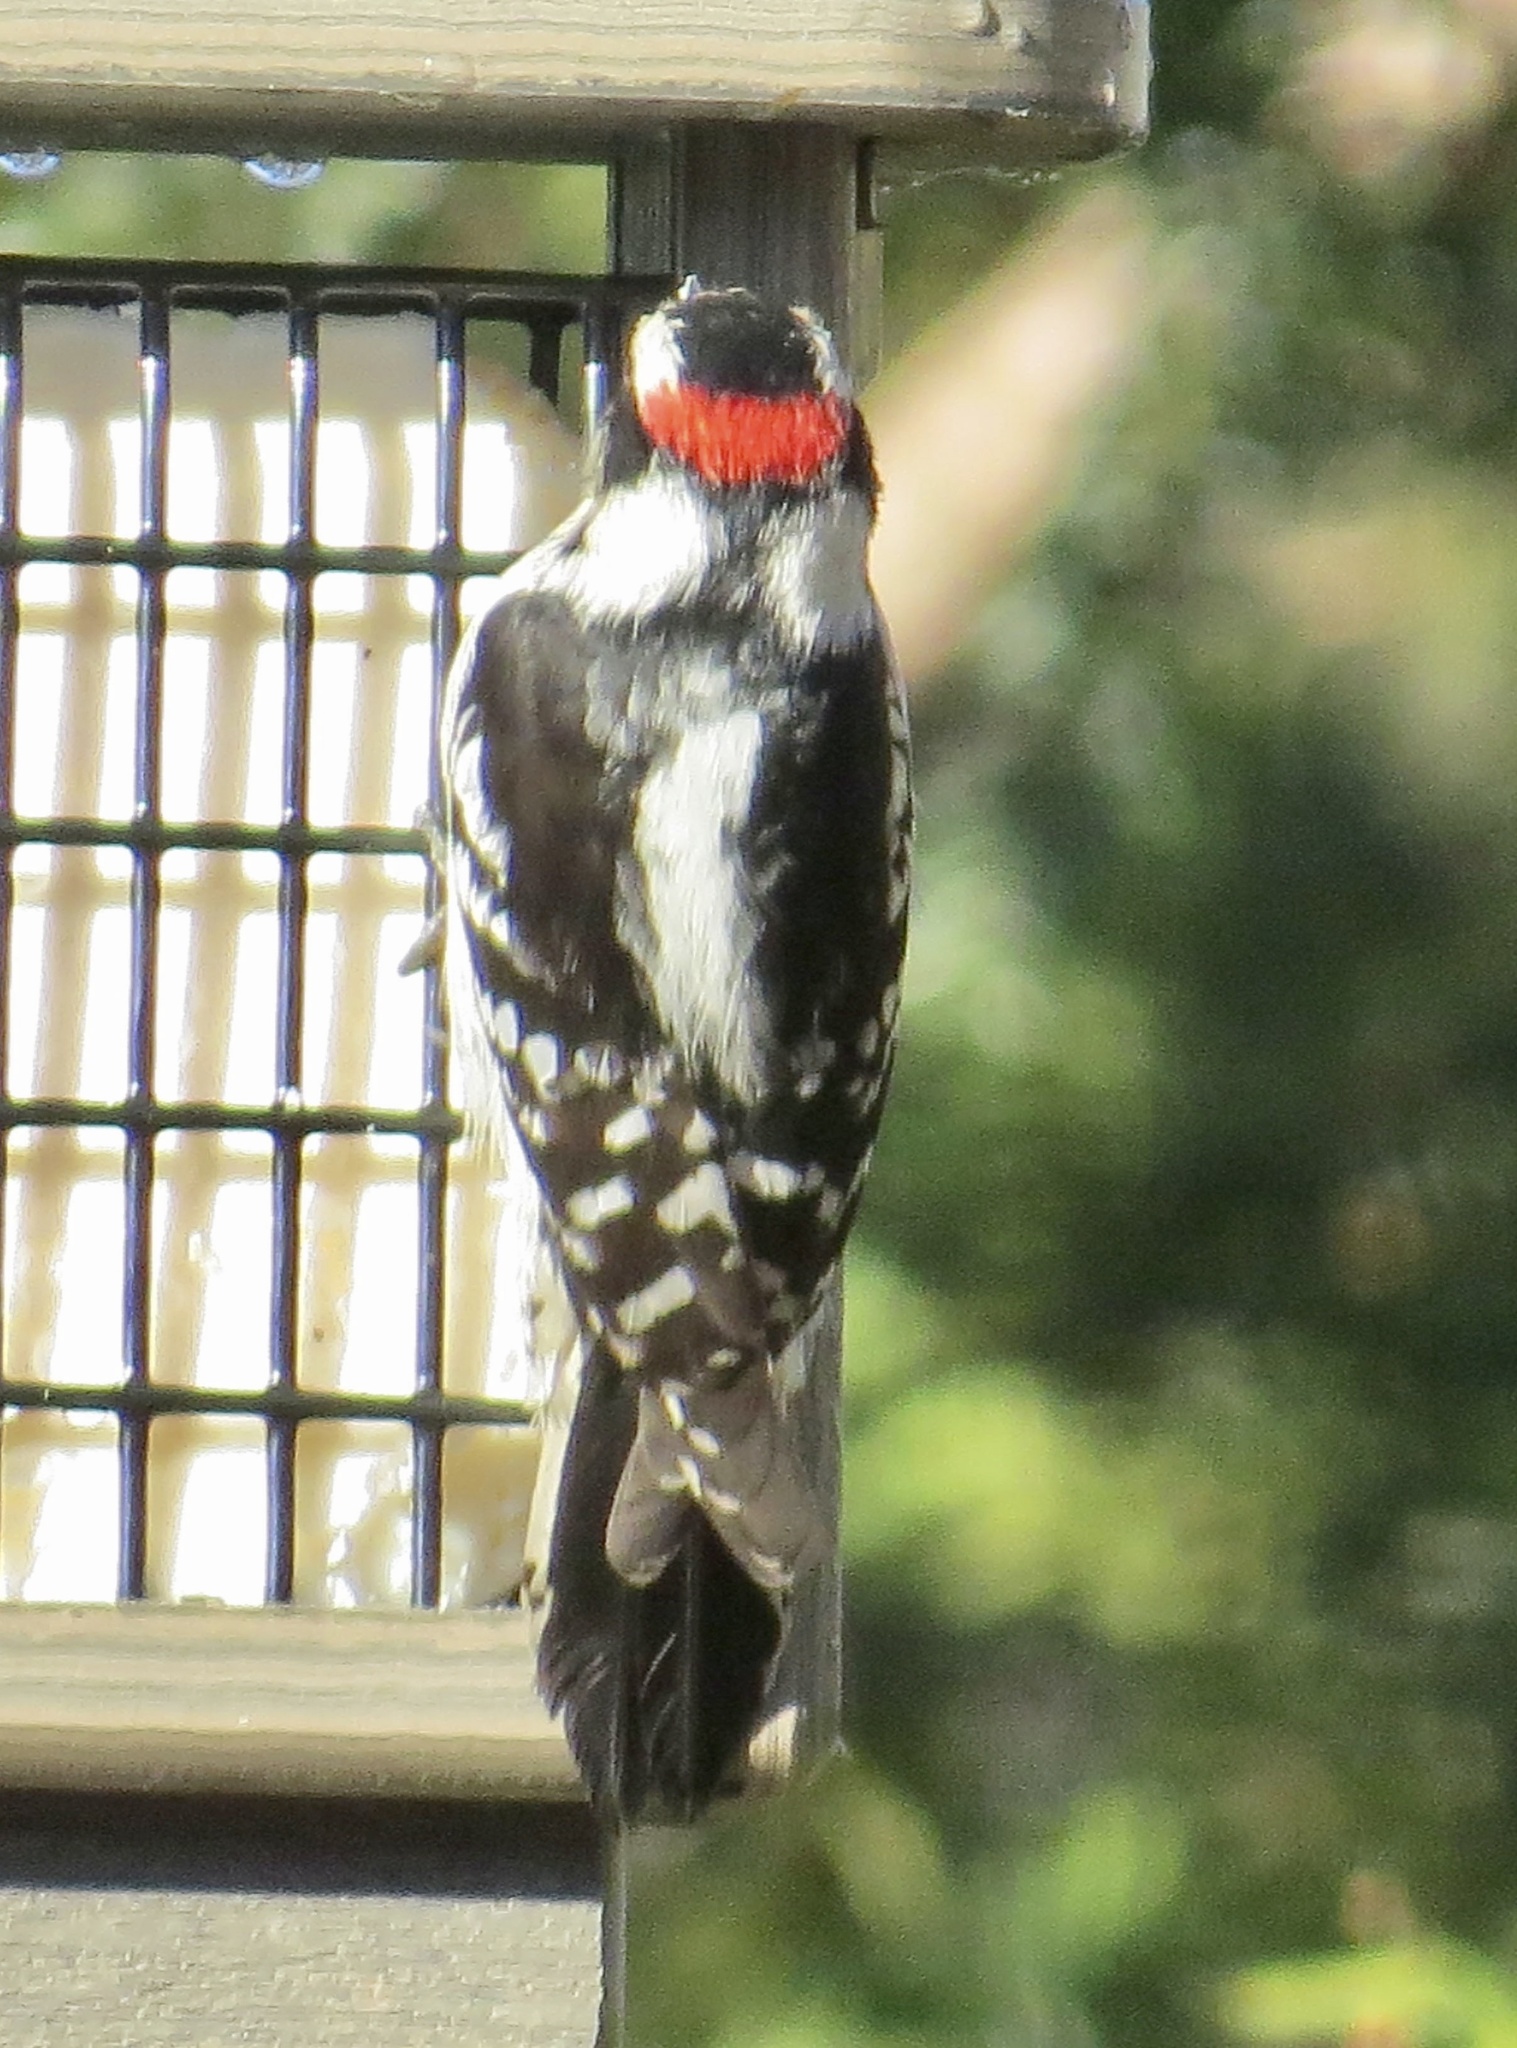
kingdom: Animalia
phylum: Chordata
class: Aves
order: Piciformes
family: Picidae
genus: Dryobates
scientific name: Dryobates pubescens
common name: Downy woodpecker
